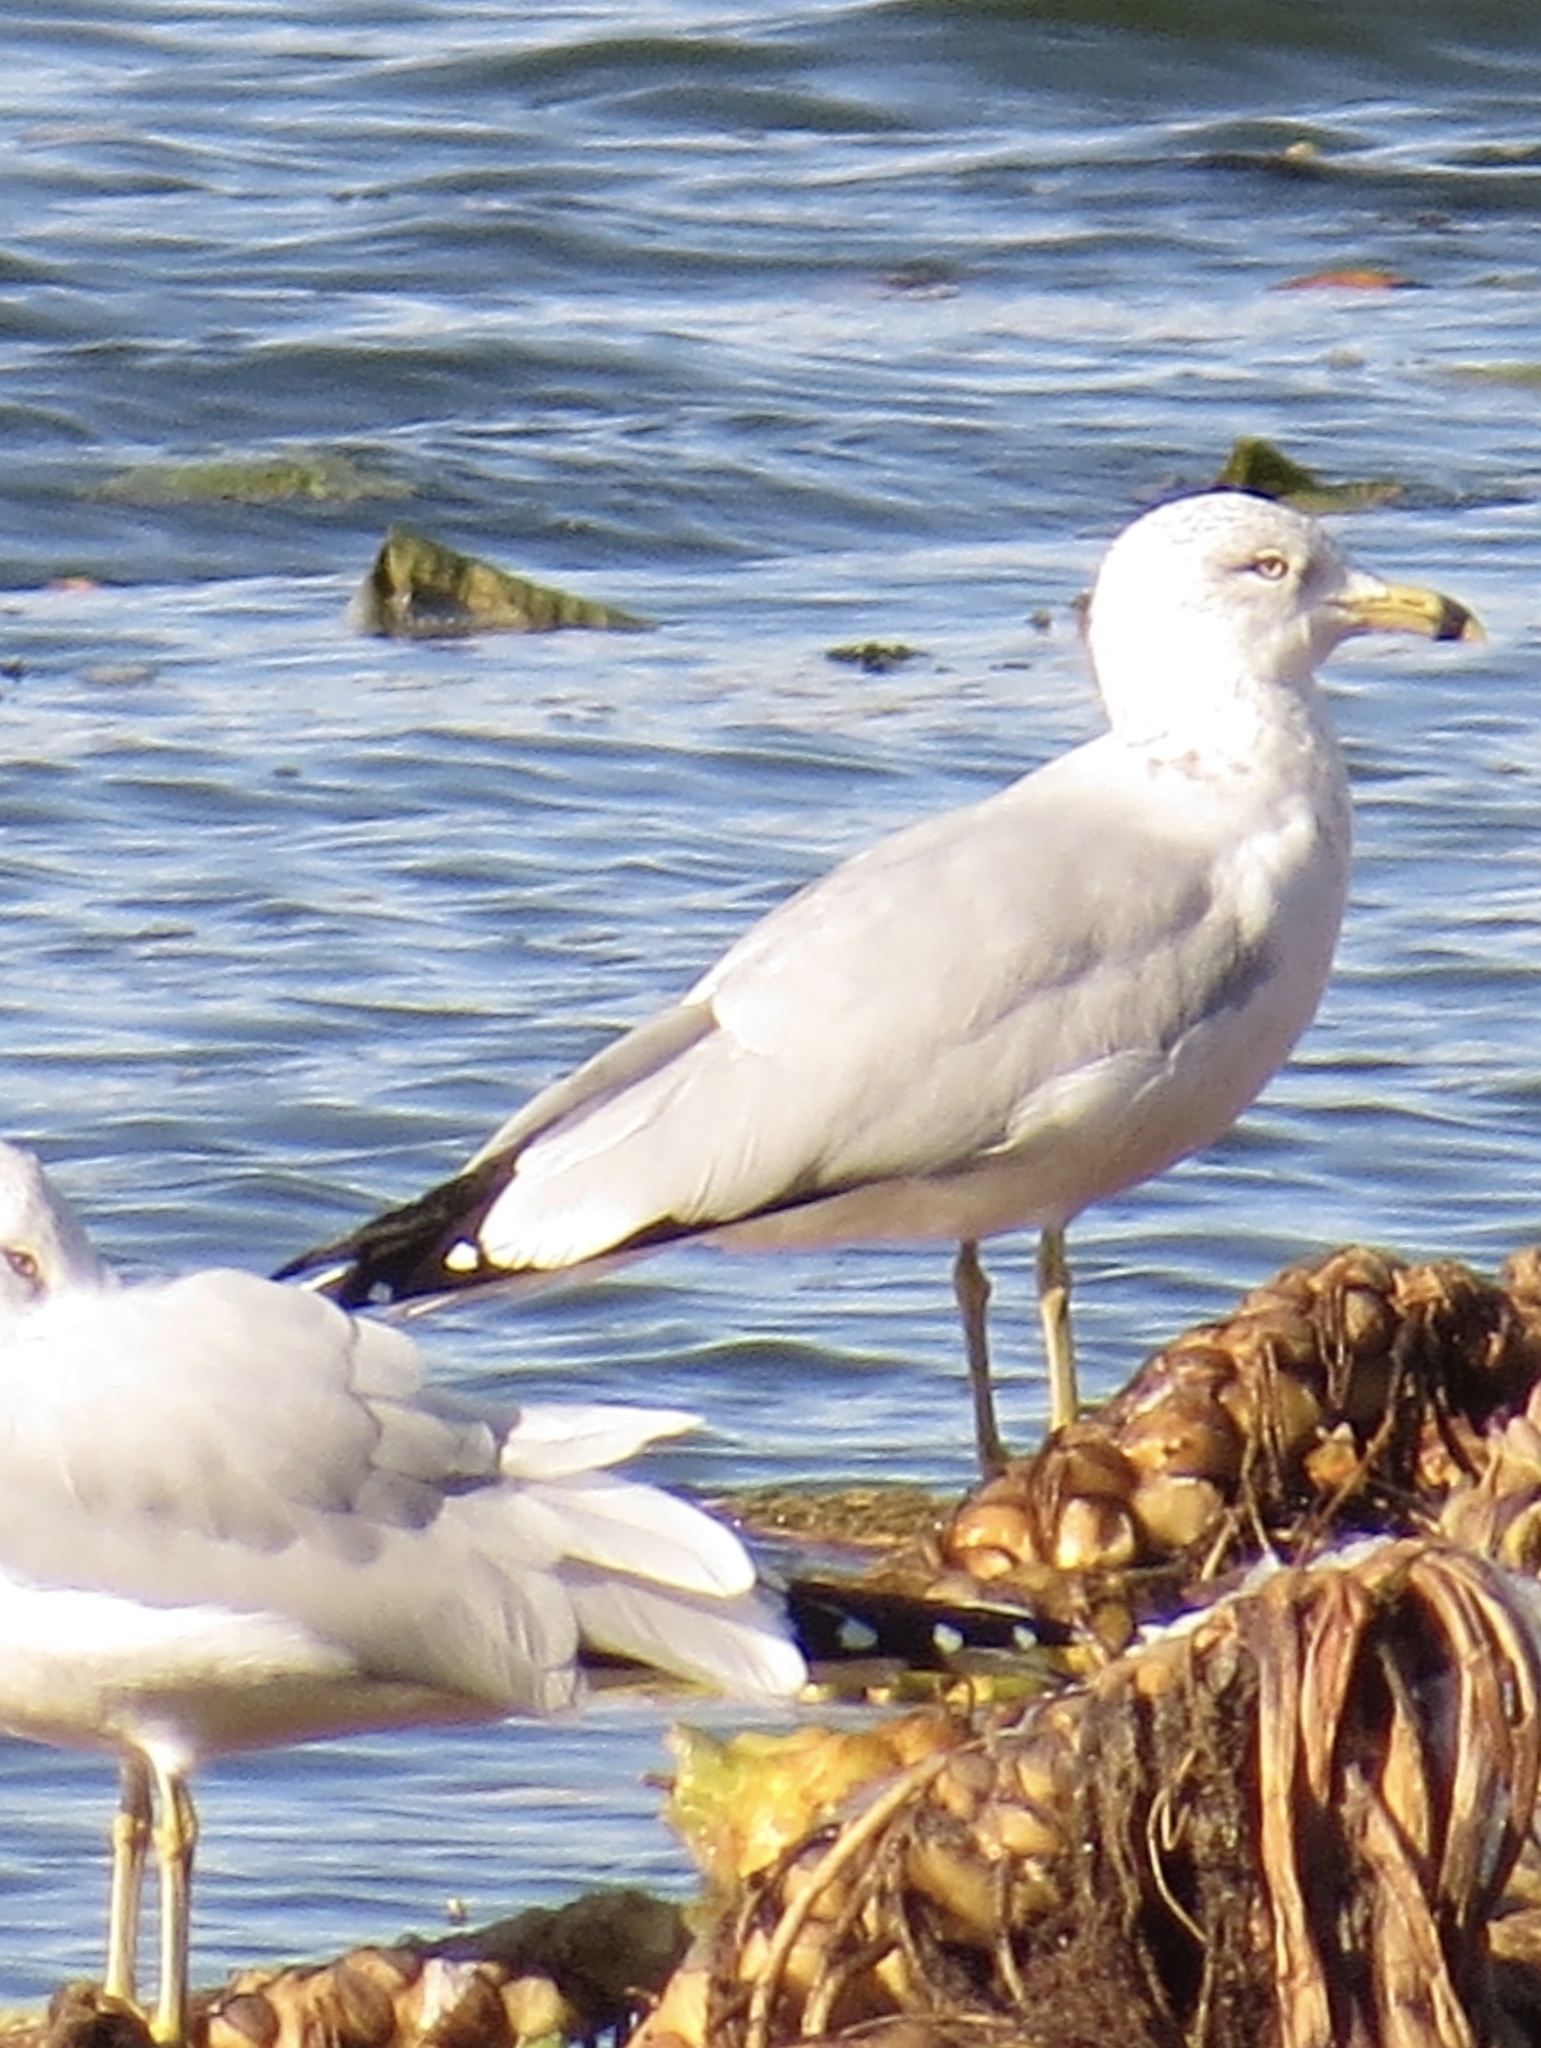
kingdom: Animalia
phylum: Chordata
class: Aves
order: Charadriiformes
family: Laridae
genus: Larus
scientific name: Larus delawarensis
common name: Ring-billed gull
